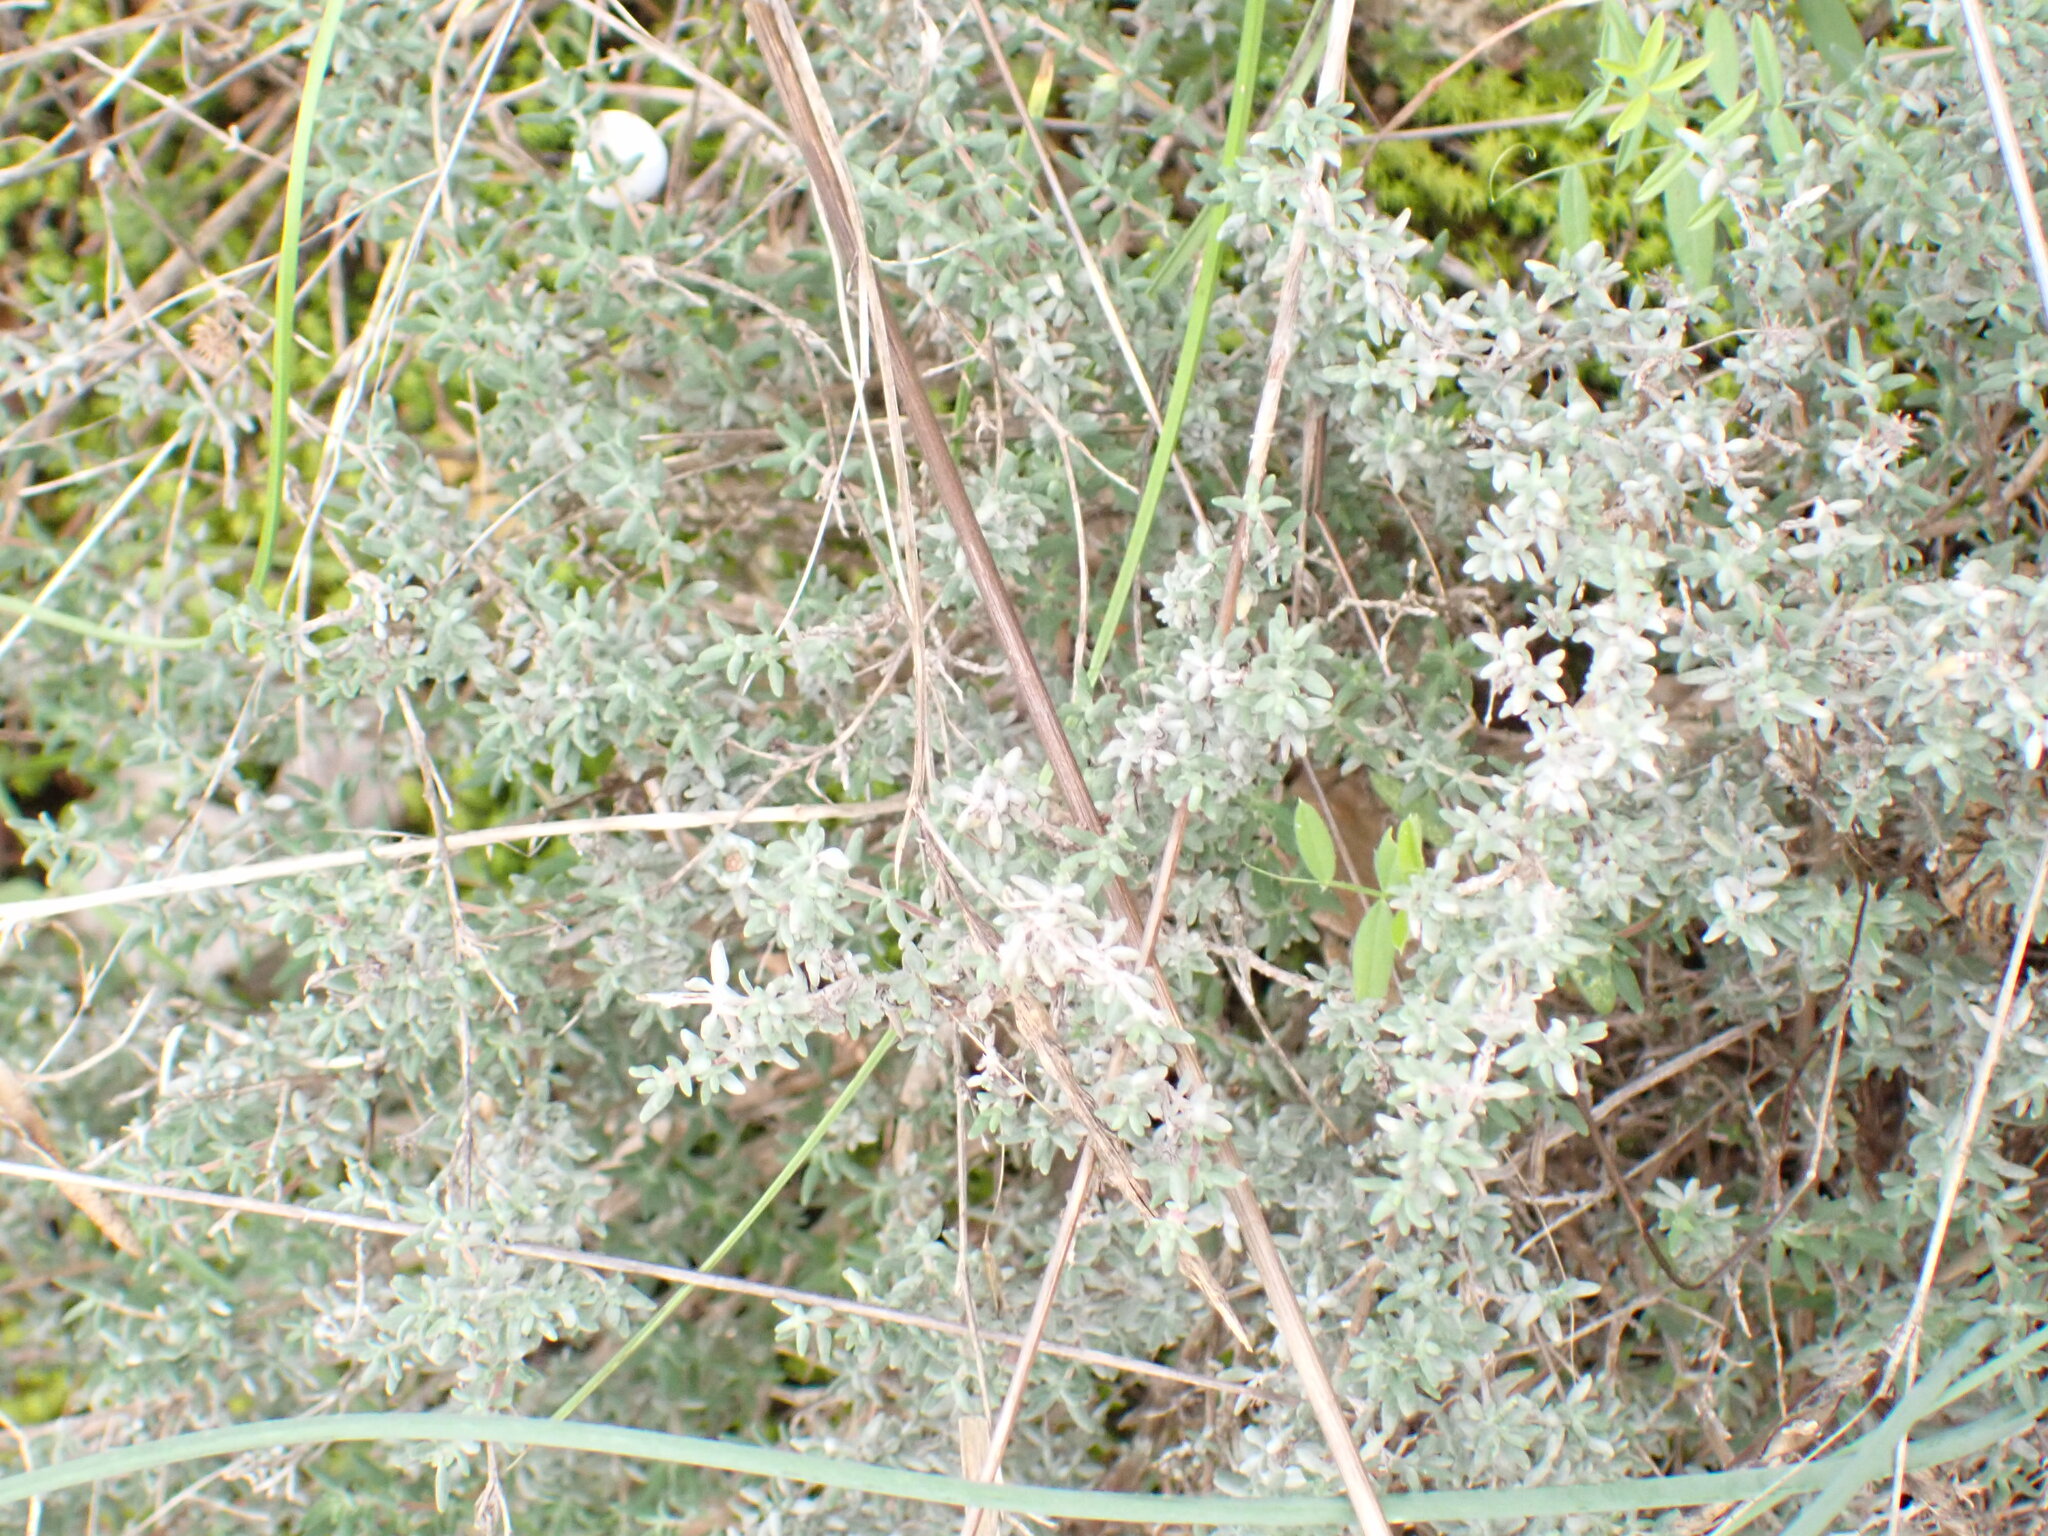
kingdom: Plantae
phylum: Tracheophyta
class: Magnoliopsida
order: Lamiales
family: Lamiaceae
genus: Thymus
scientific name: Thymus vulgaris
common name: Garden thyme
